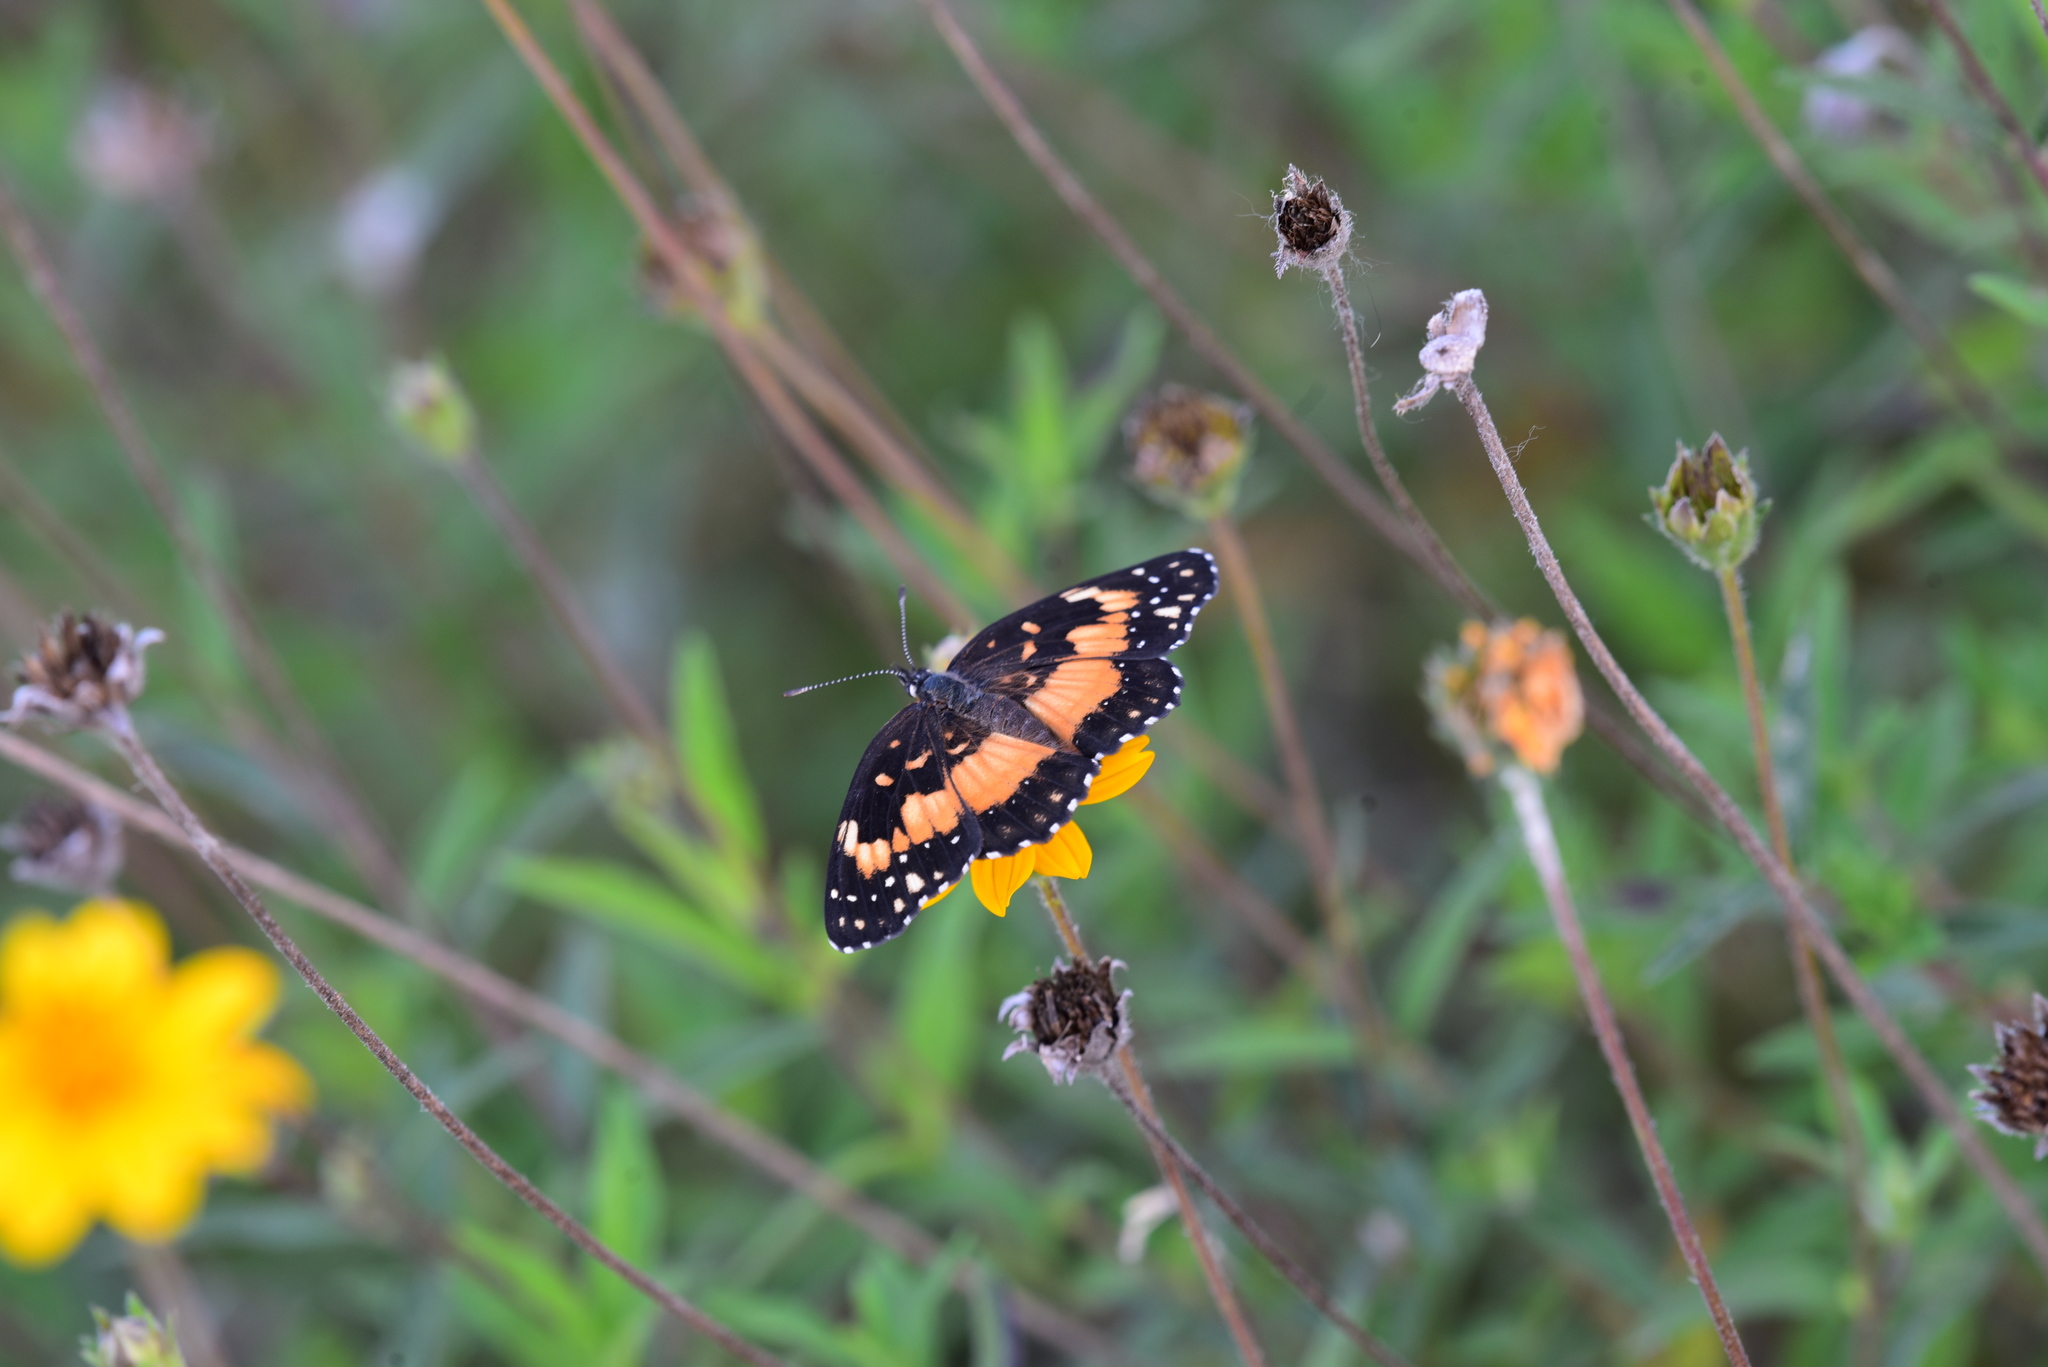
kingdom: Animalia
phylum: Arthropoda
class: Insecta
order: Lepidoptera
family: Nymphalidae
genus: Chlosyne
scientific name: Chlosyne lacinia
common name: Bordered patch
